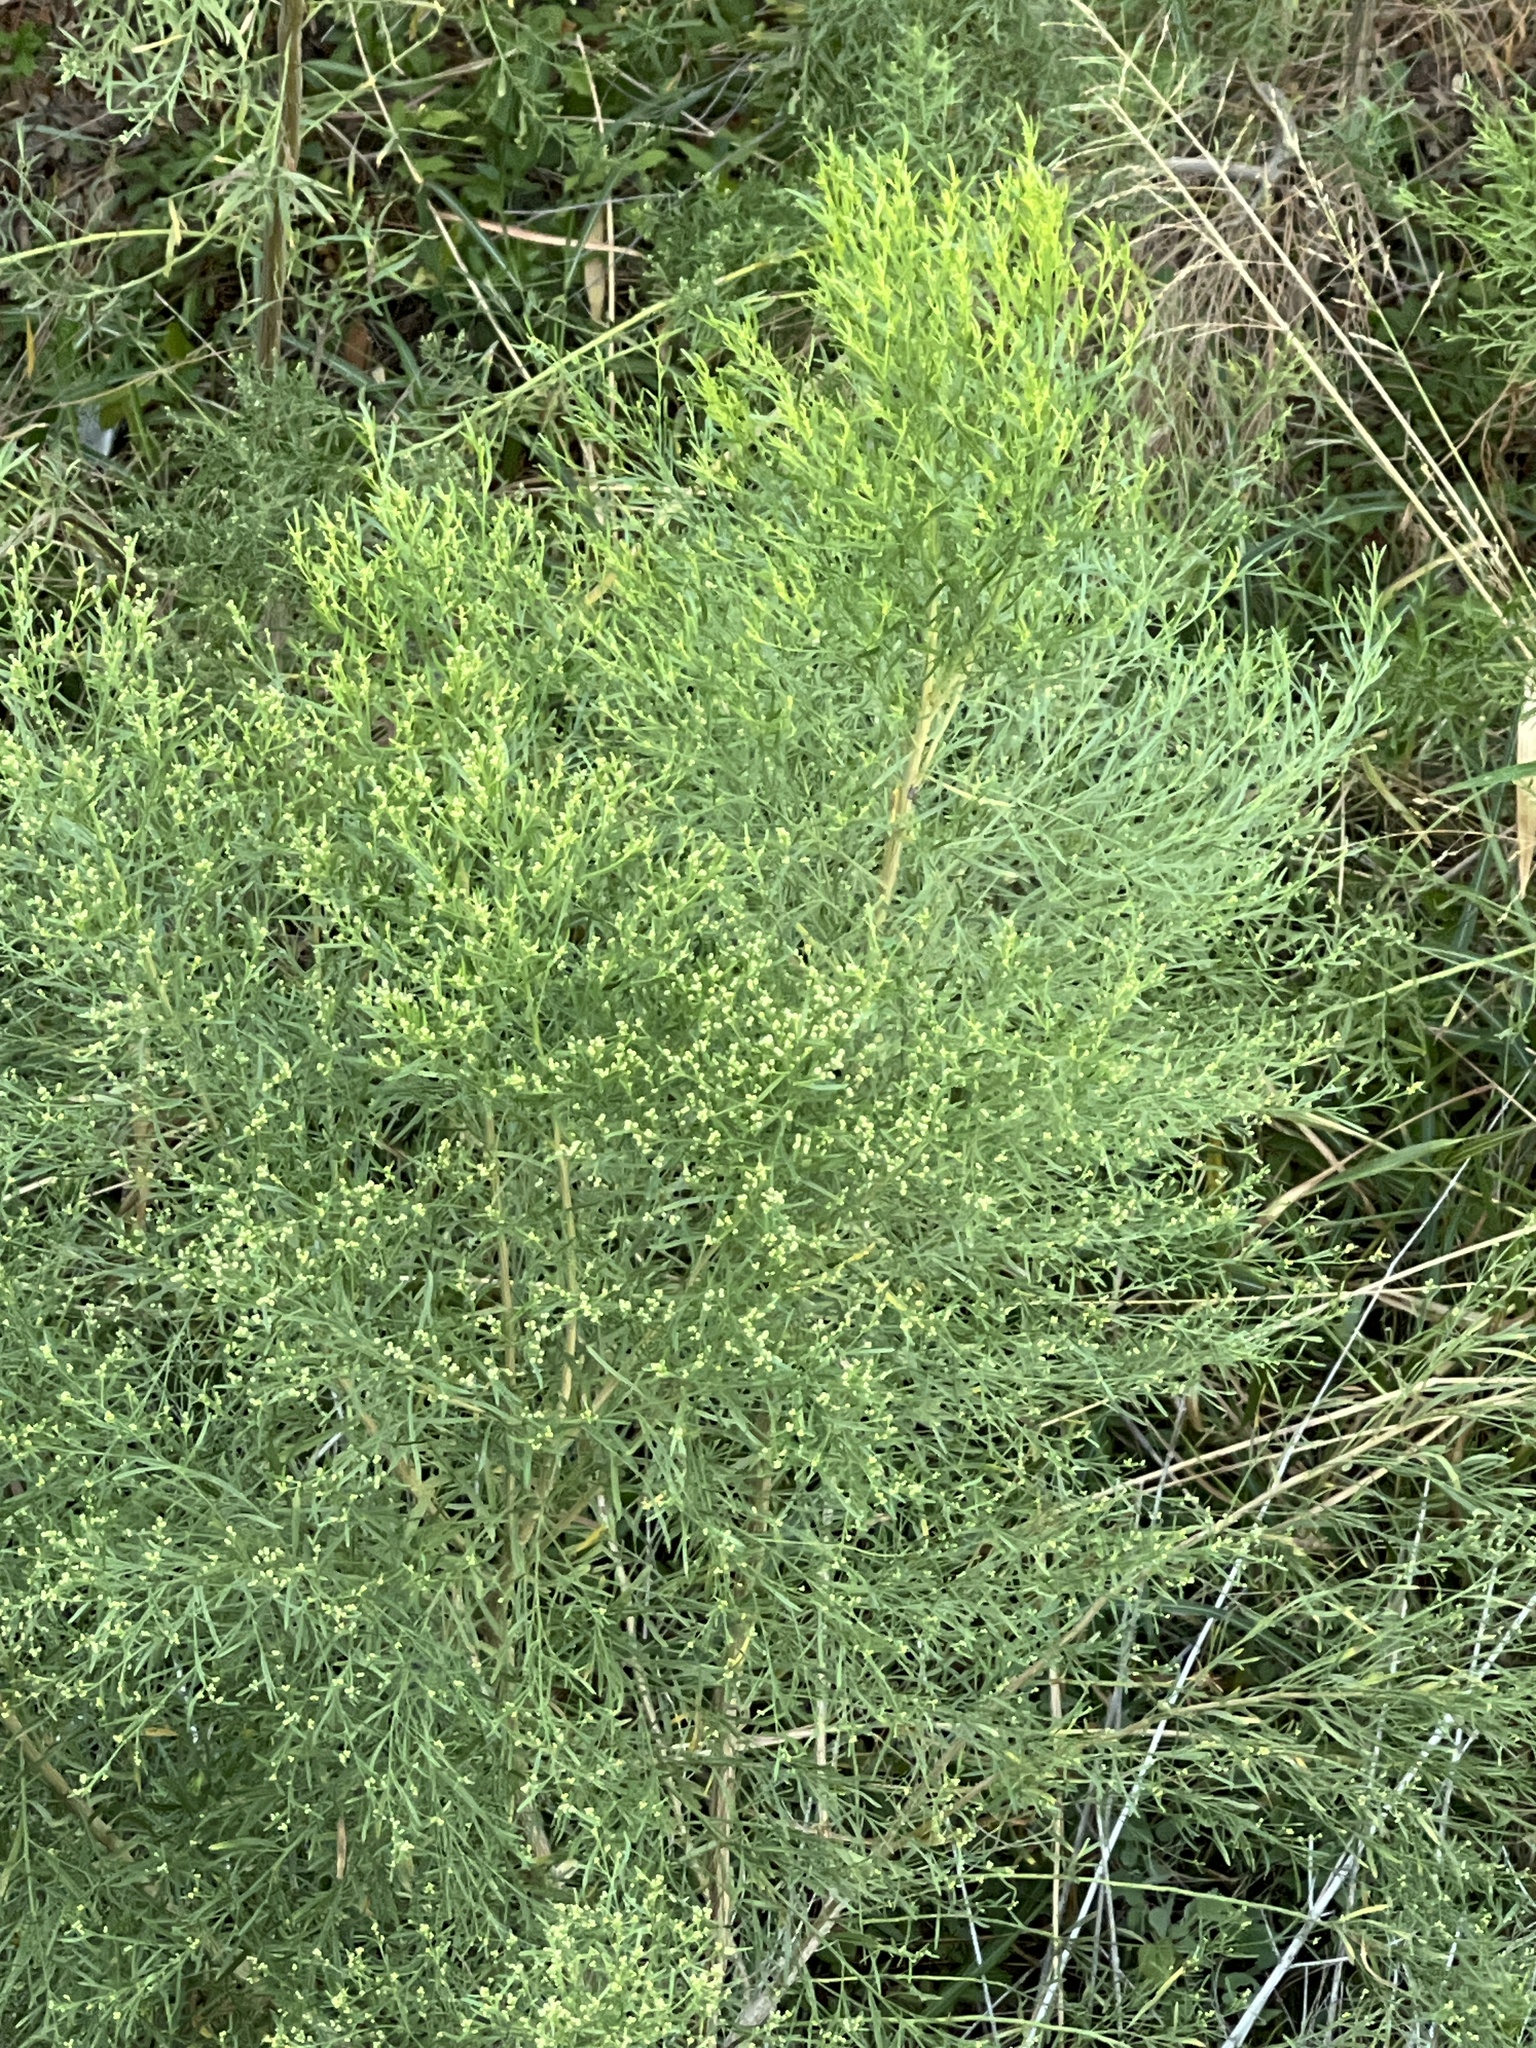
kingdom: Plantae
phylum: Tracheophyta
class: Magnoliopsida
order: Asterales
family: Asteraceae
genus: Baccharis
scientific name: Baccharis neglecta
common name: Roosevelt-weed
